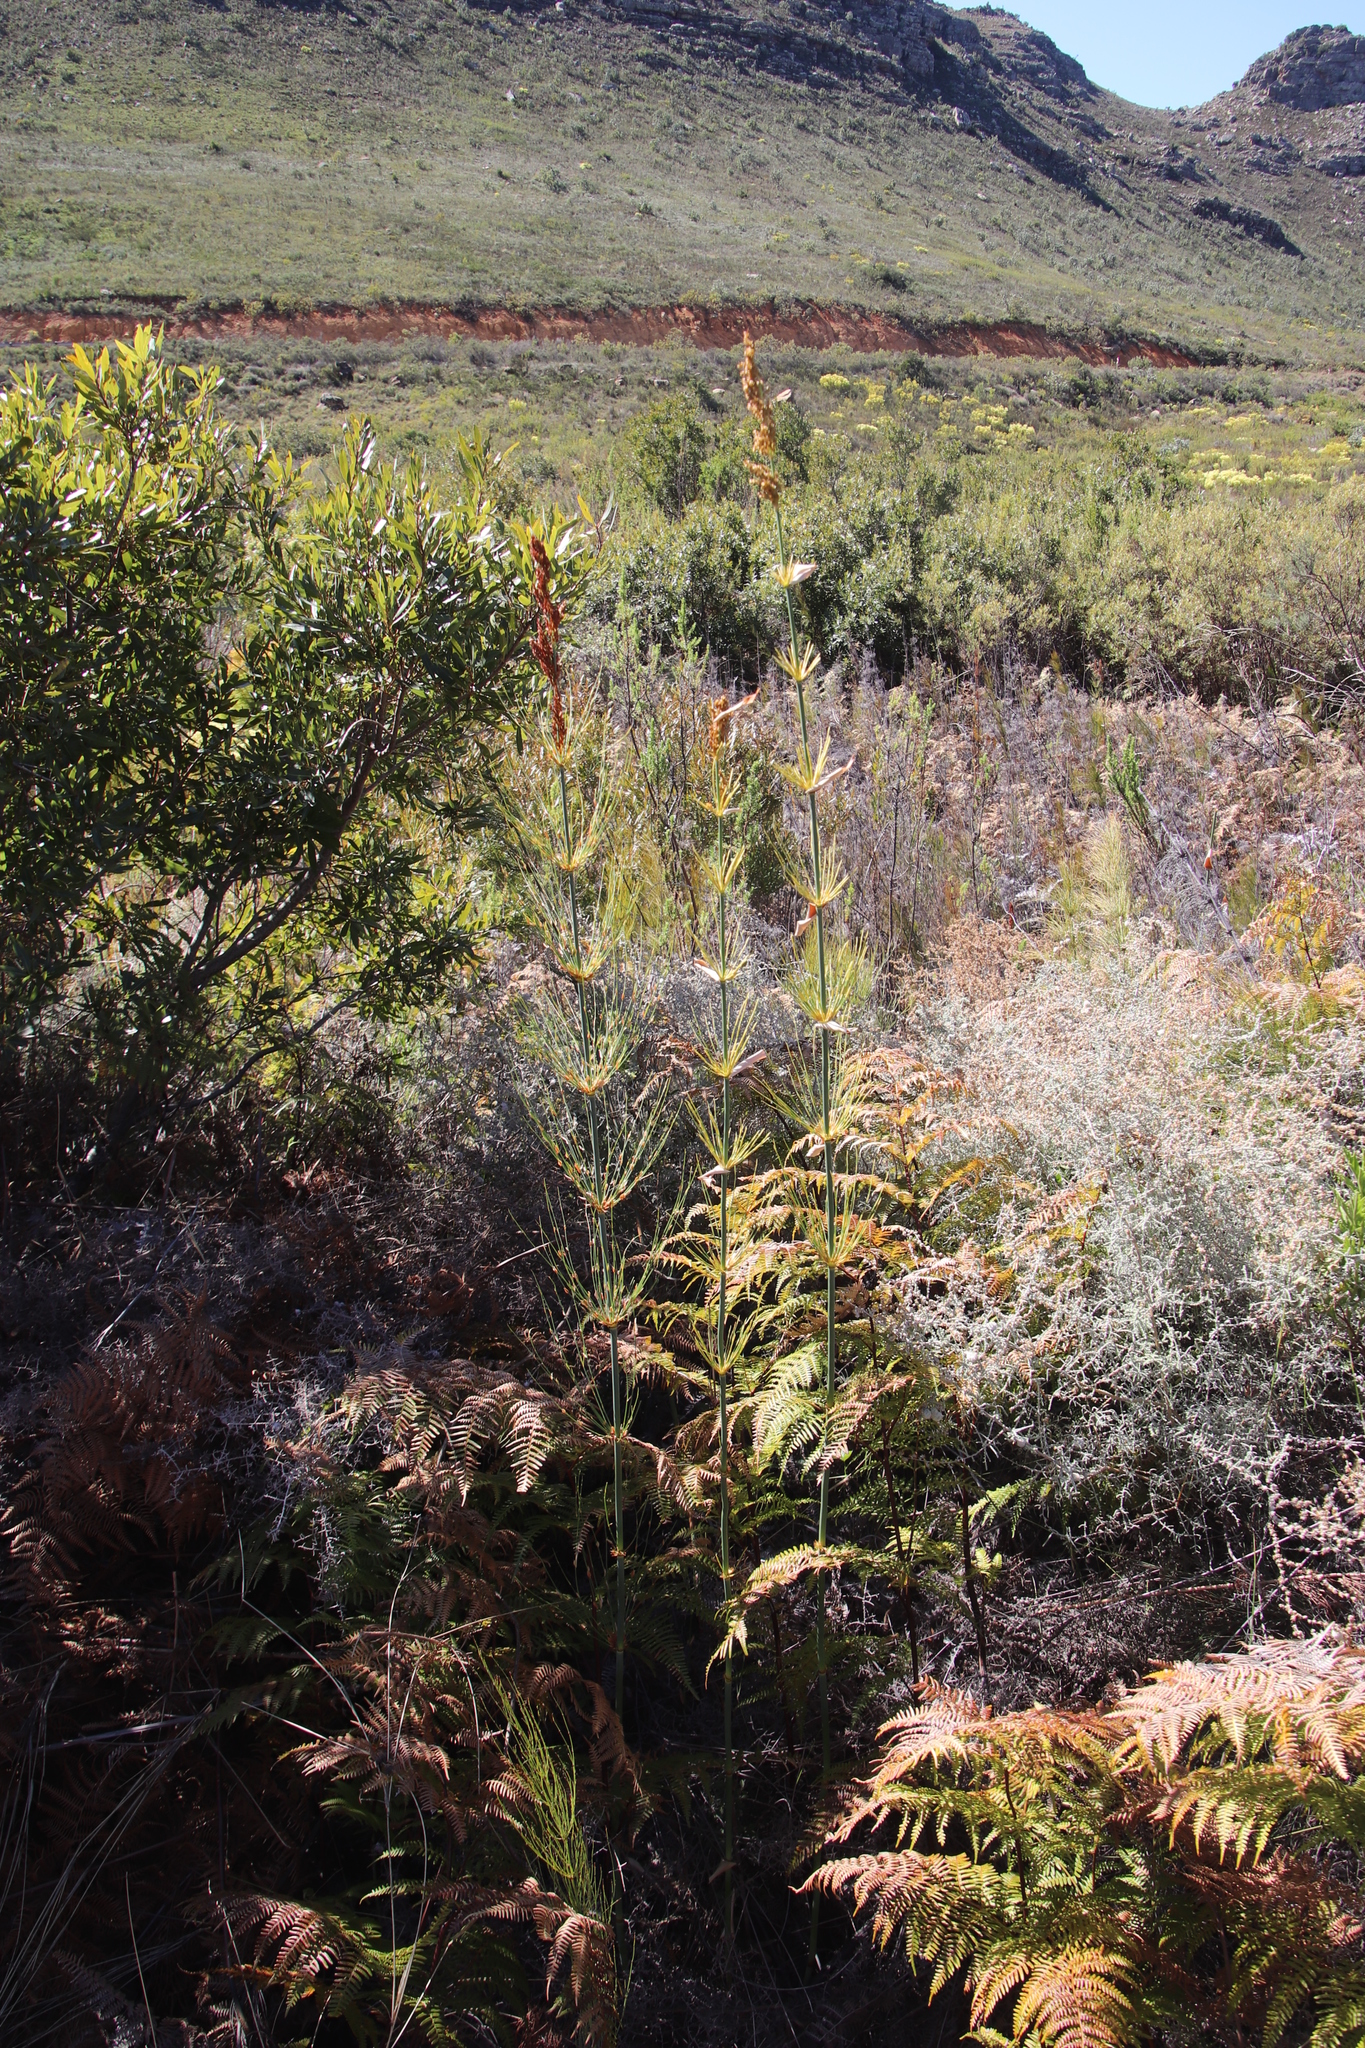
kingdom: Plantae
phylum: Tracheophyta
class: Liliopsida
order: Poales
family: Restionaceae
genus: Elegia
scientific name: Elegia capensis
